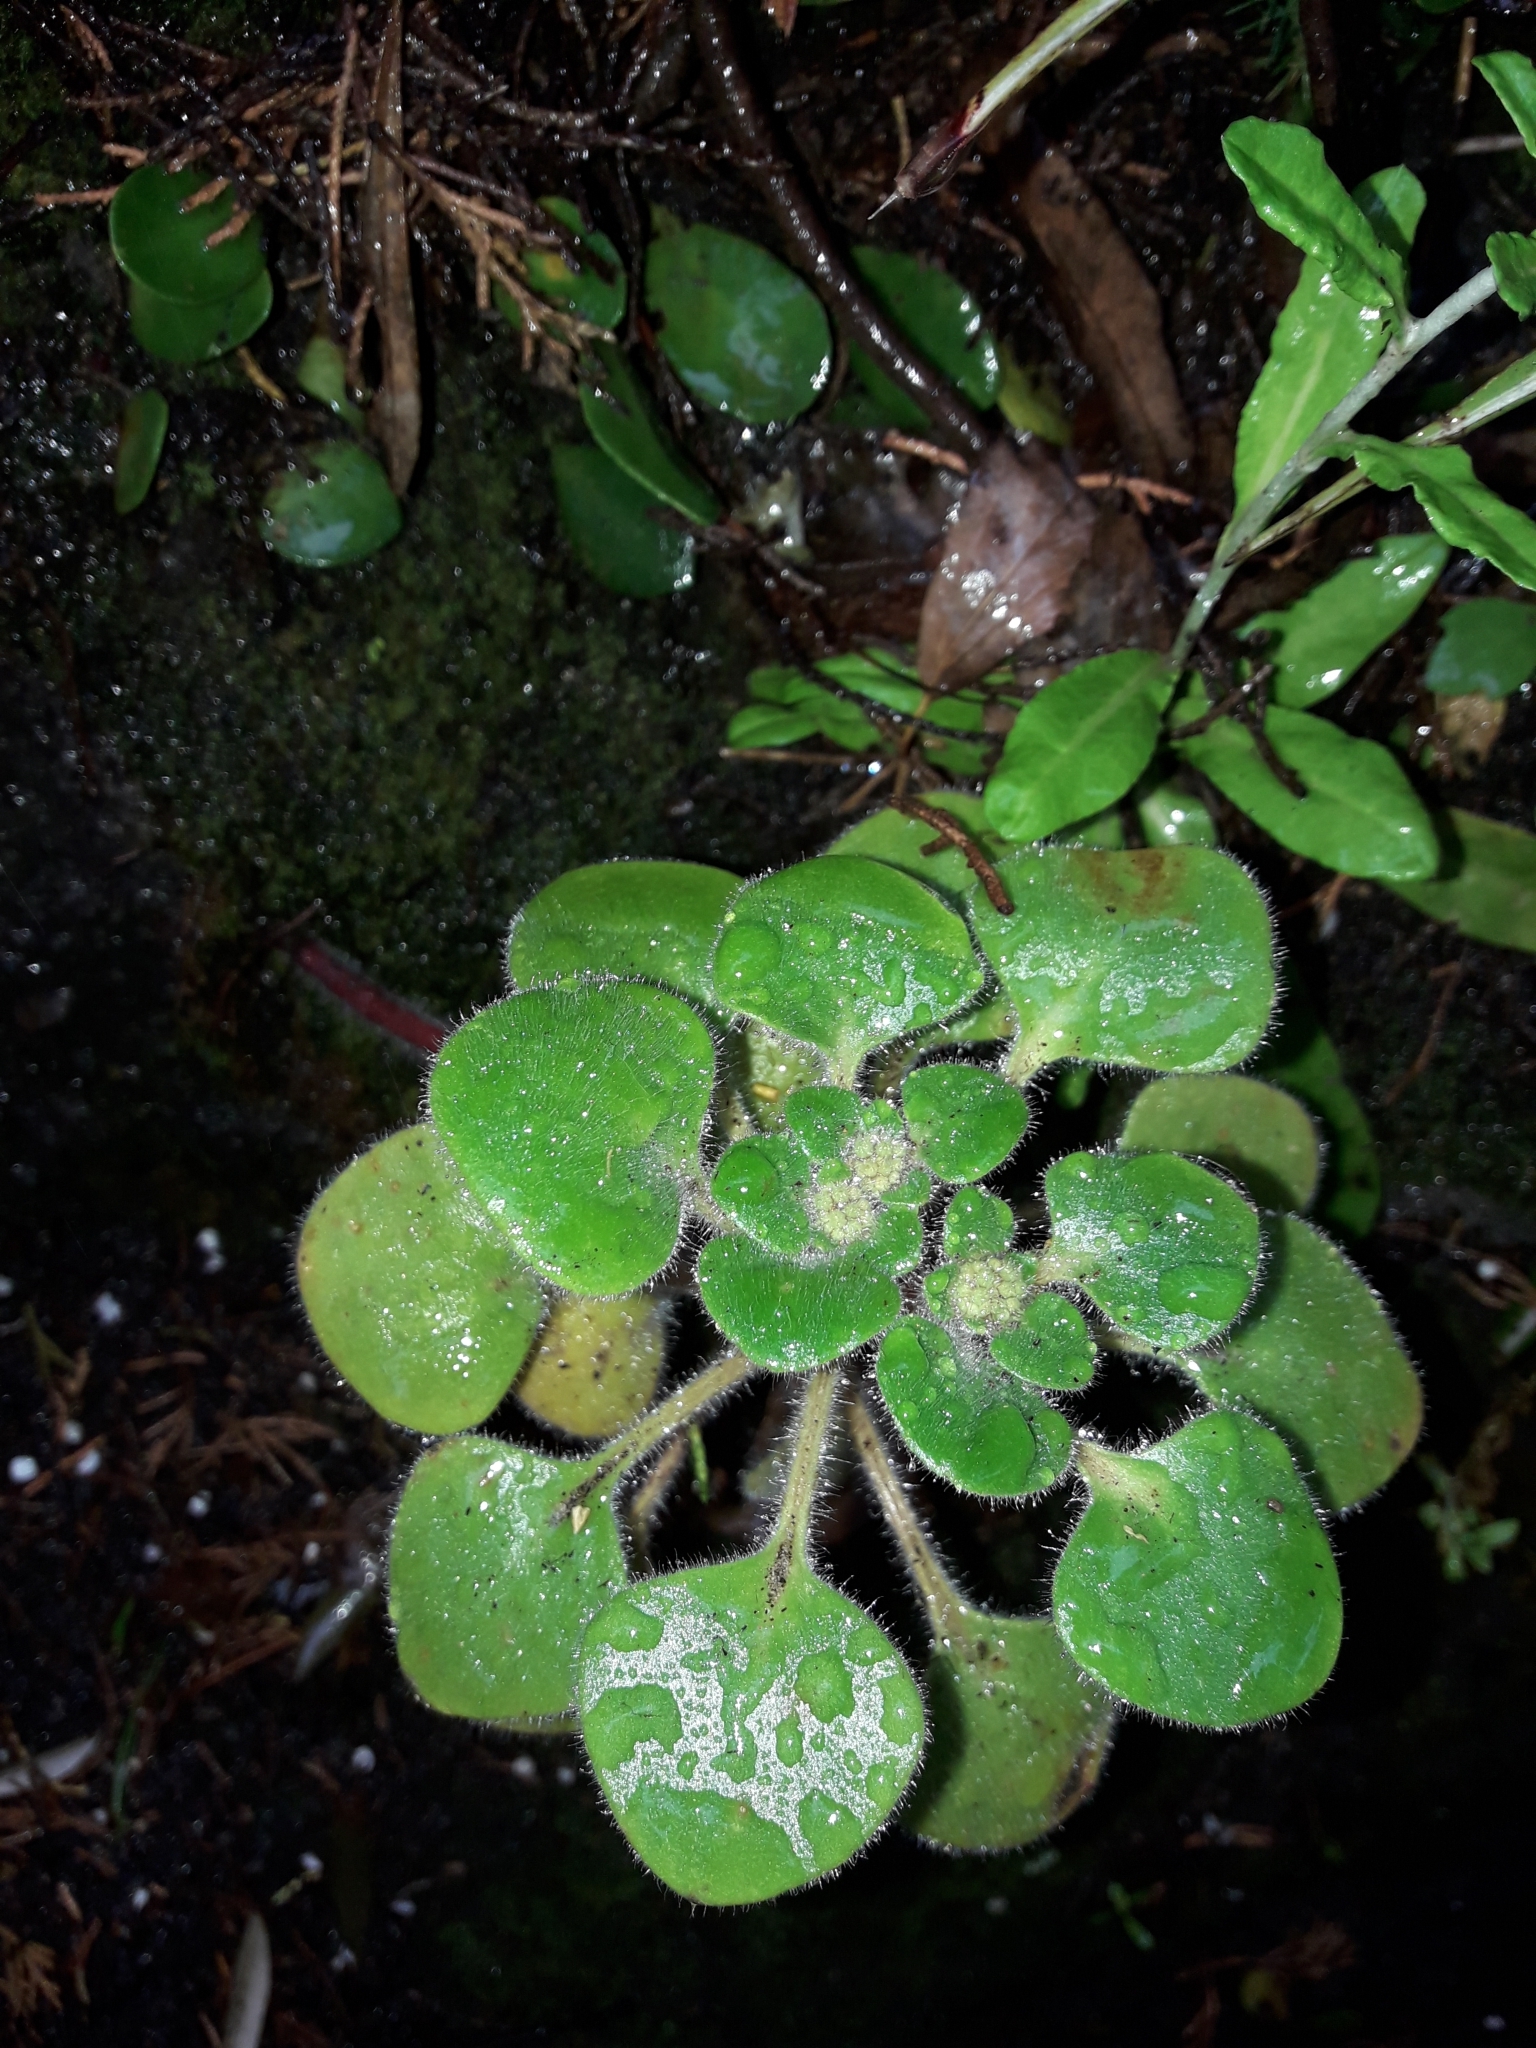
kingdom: Plantae
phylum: Tracheophyta
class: Magnoliopsida
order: Saxifragales
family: Crassulaceae
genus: Aichryson
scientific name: Aichryson laxum
